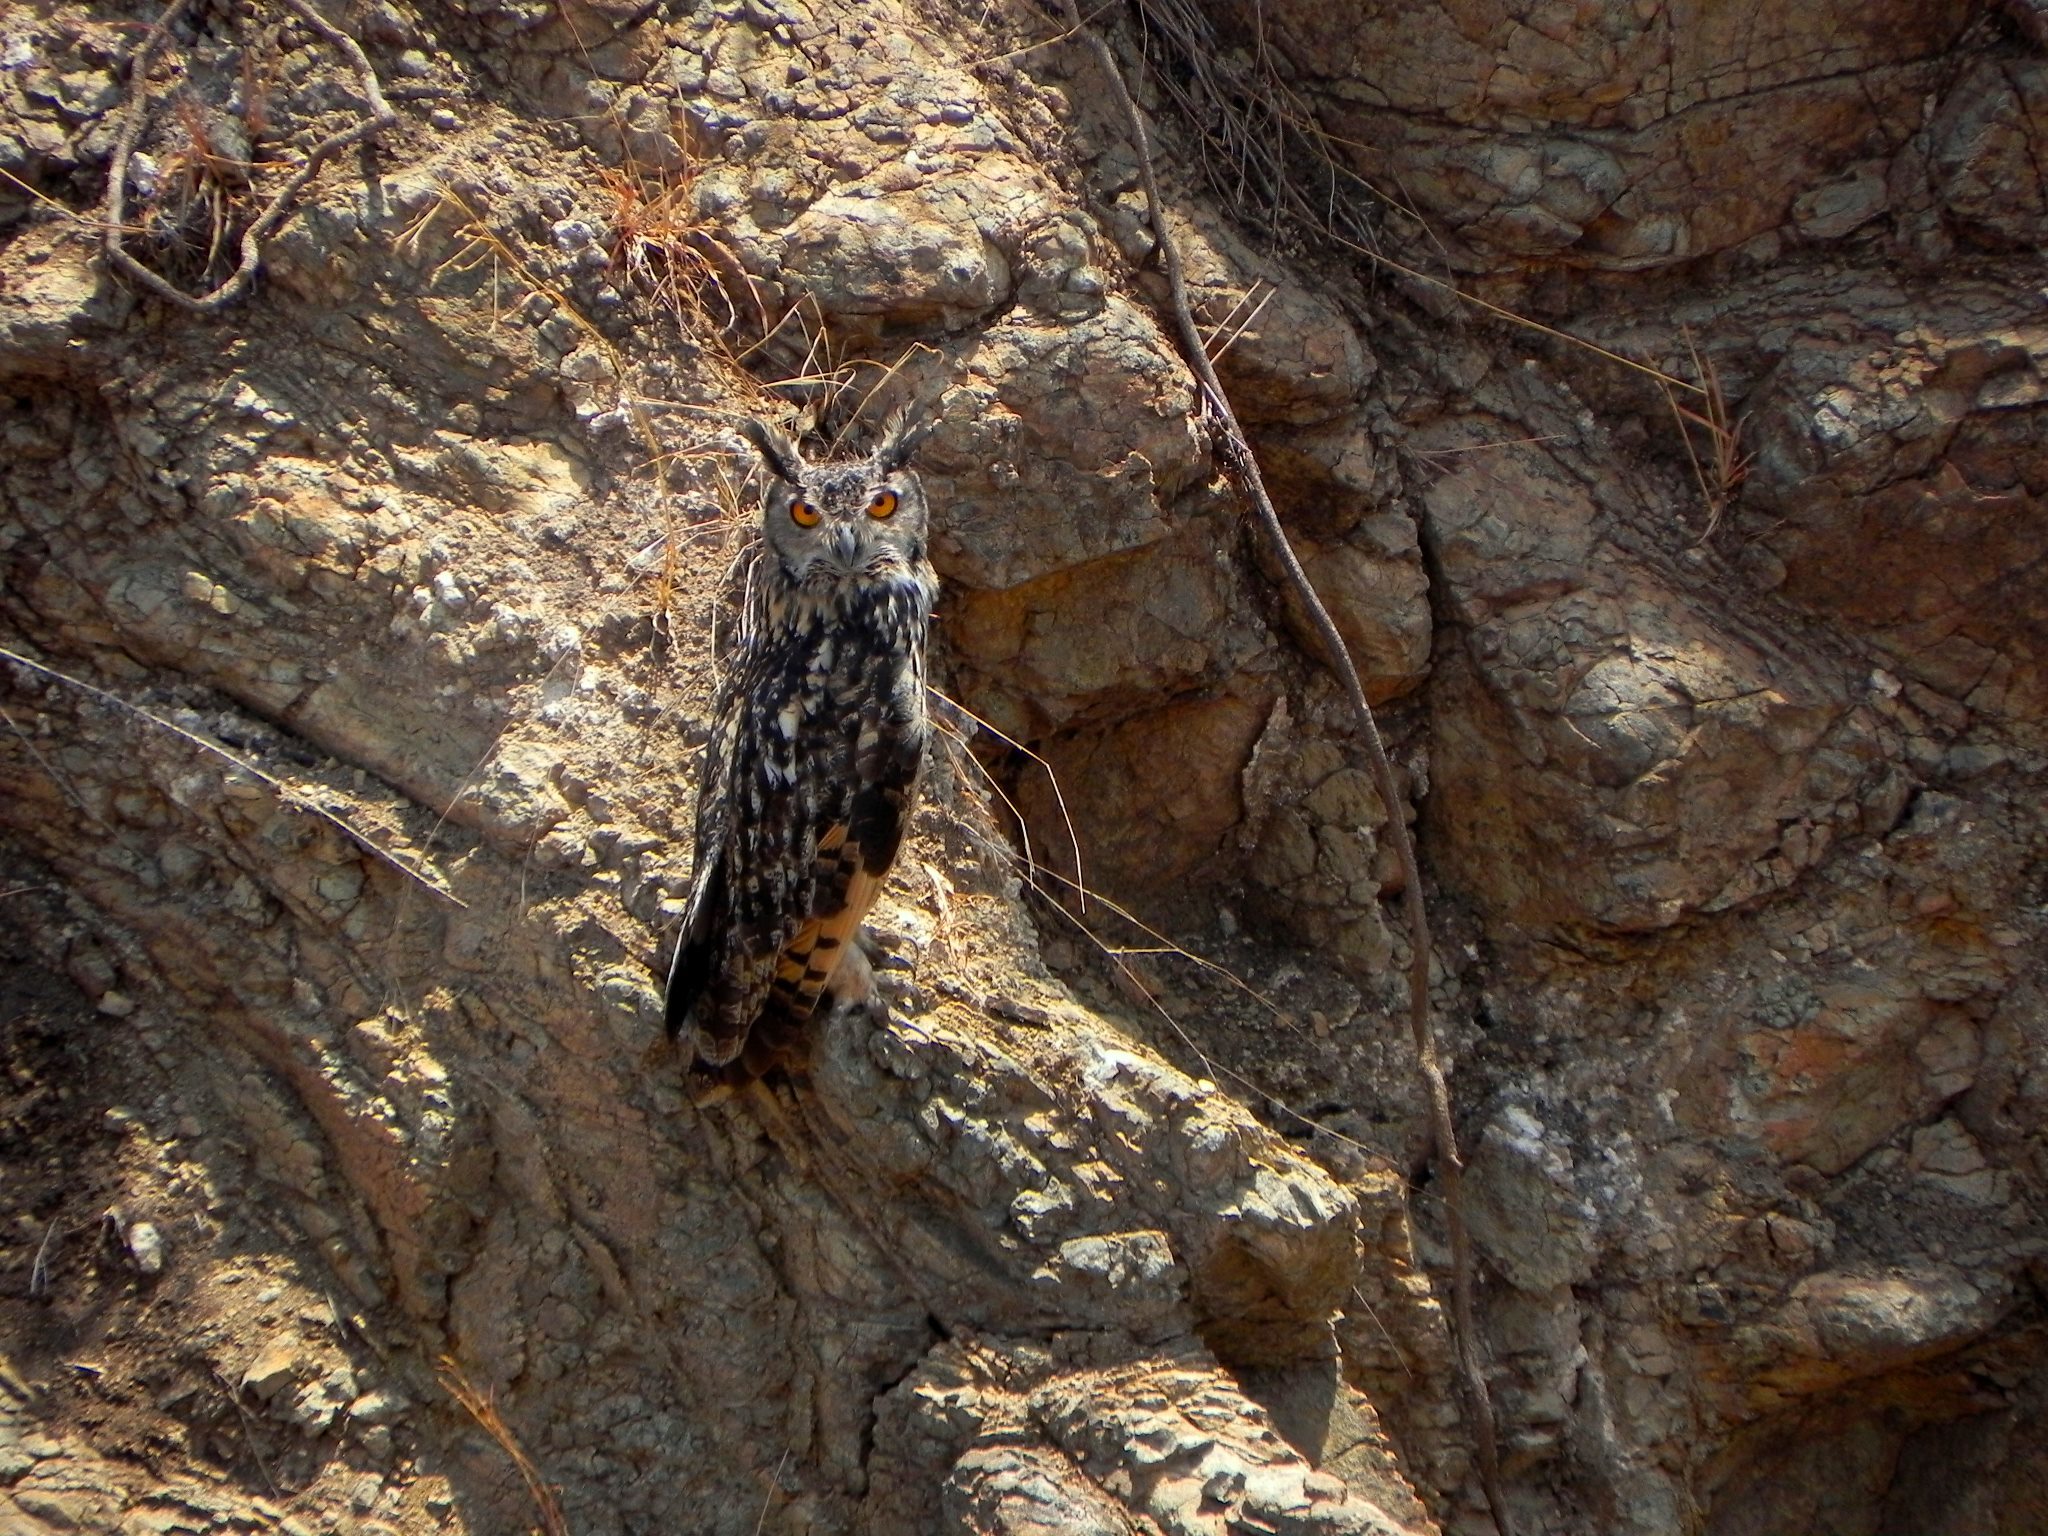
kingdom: Animalia
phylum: Chordata
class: Aves
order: Strigiformes
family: Strigidae
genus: Bubo
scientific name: Bubo bengalensis
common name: Indian eagle-owl
